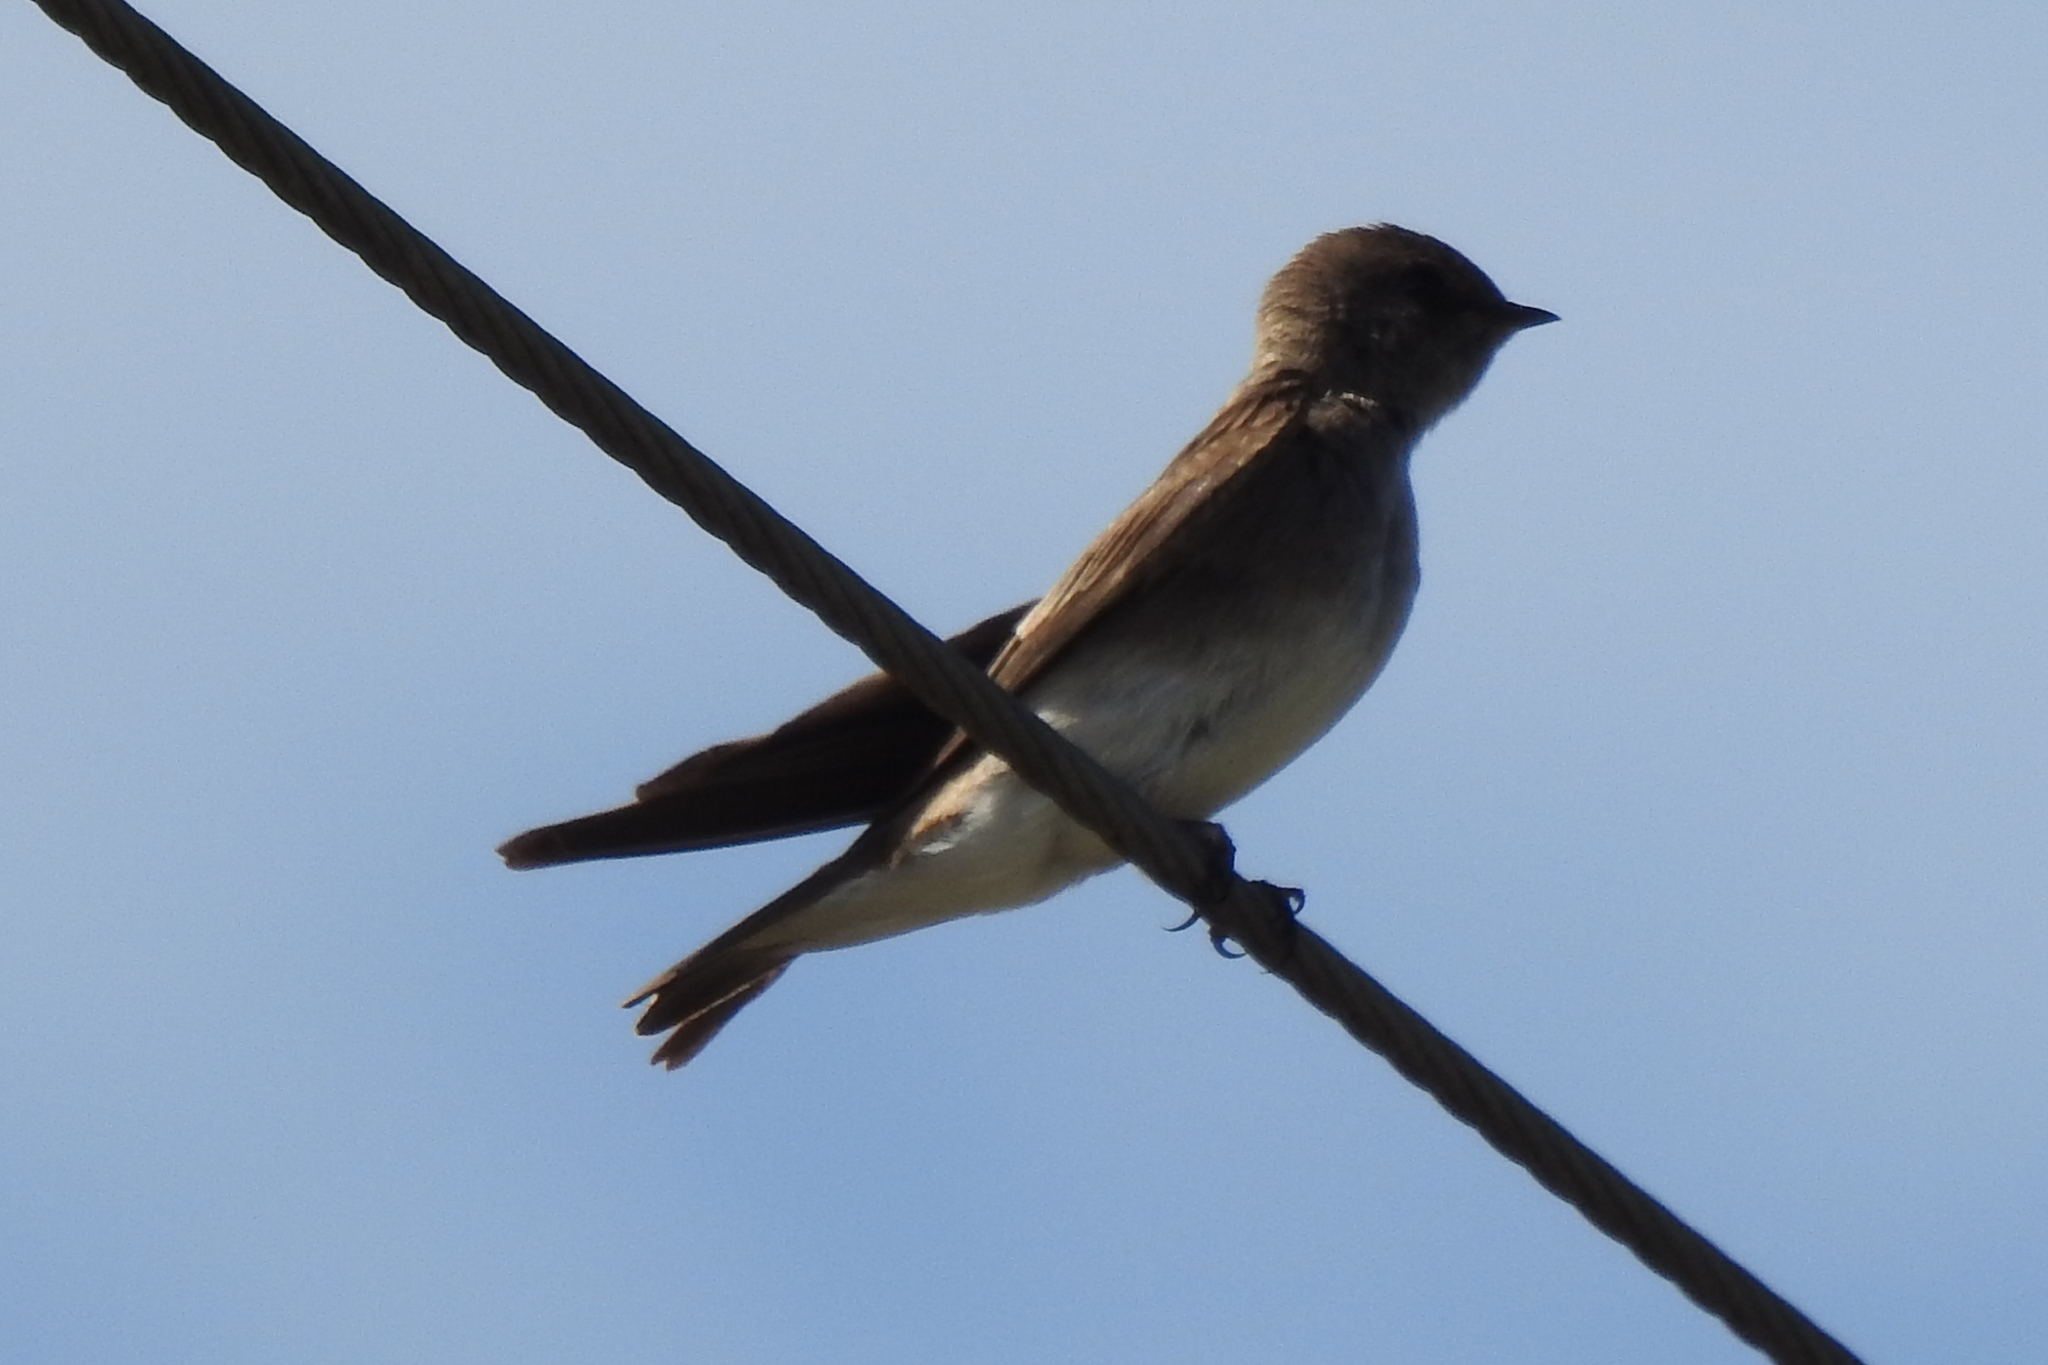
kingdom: Animalia
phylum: Chordata
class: Aves
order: Passeriformes
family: Hirundinidae
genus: Stelgidopteryx
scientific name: Stelgidopteryx serripennis
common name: Northern rough-winged swallow
